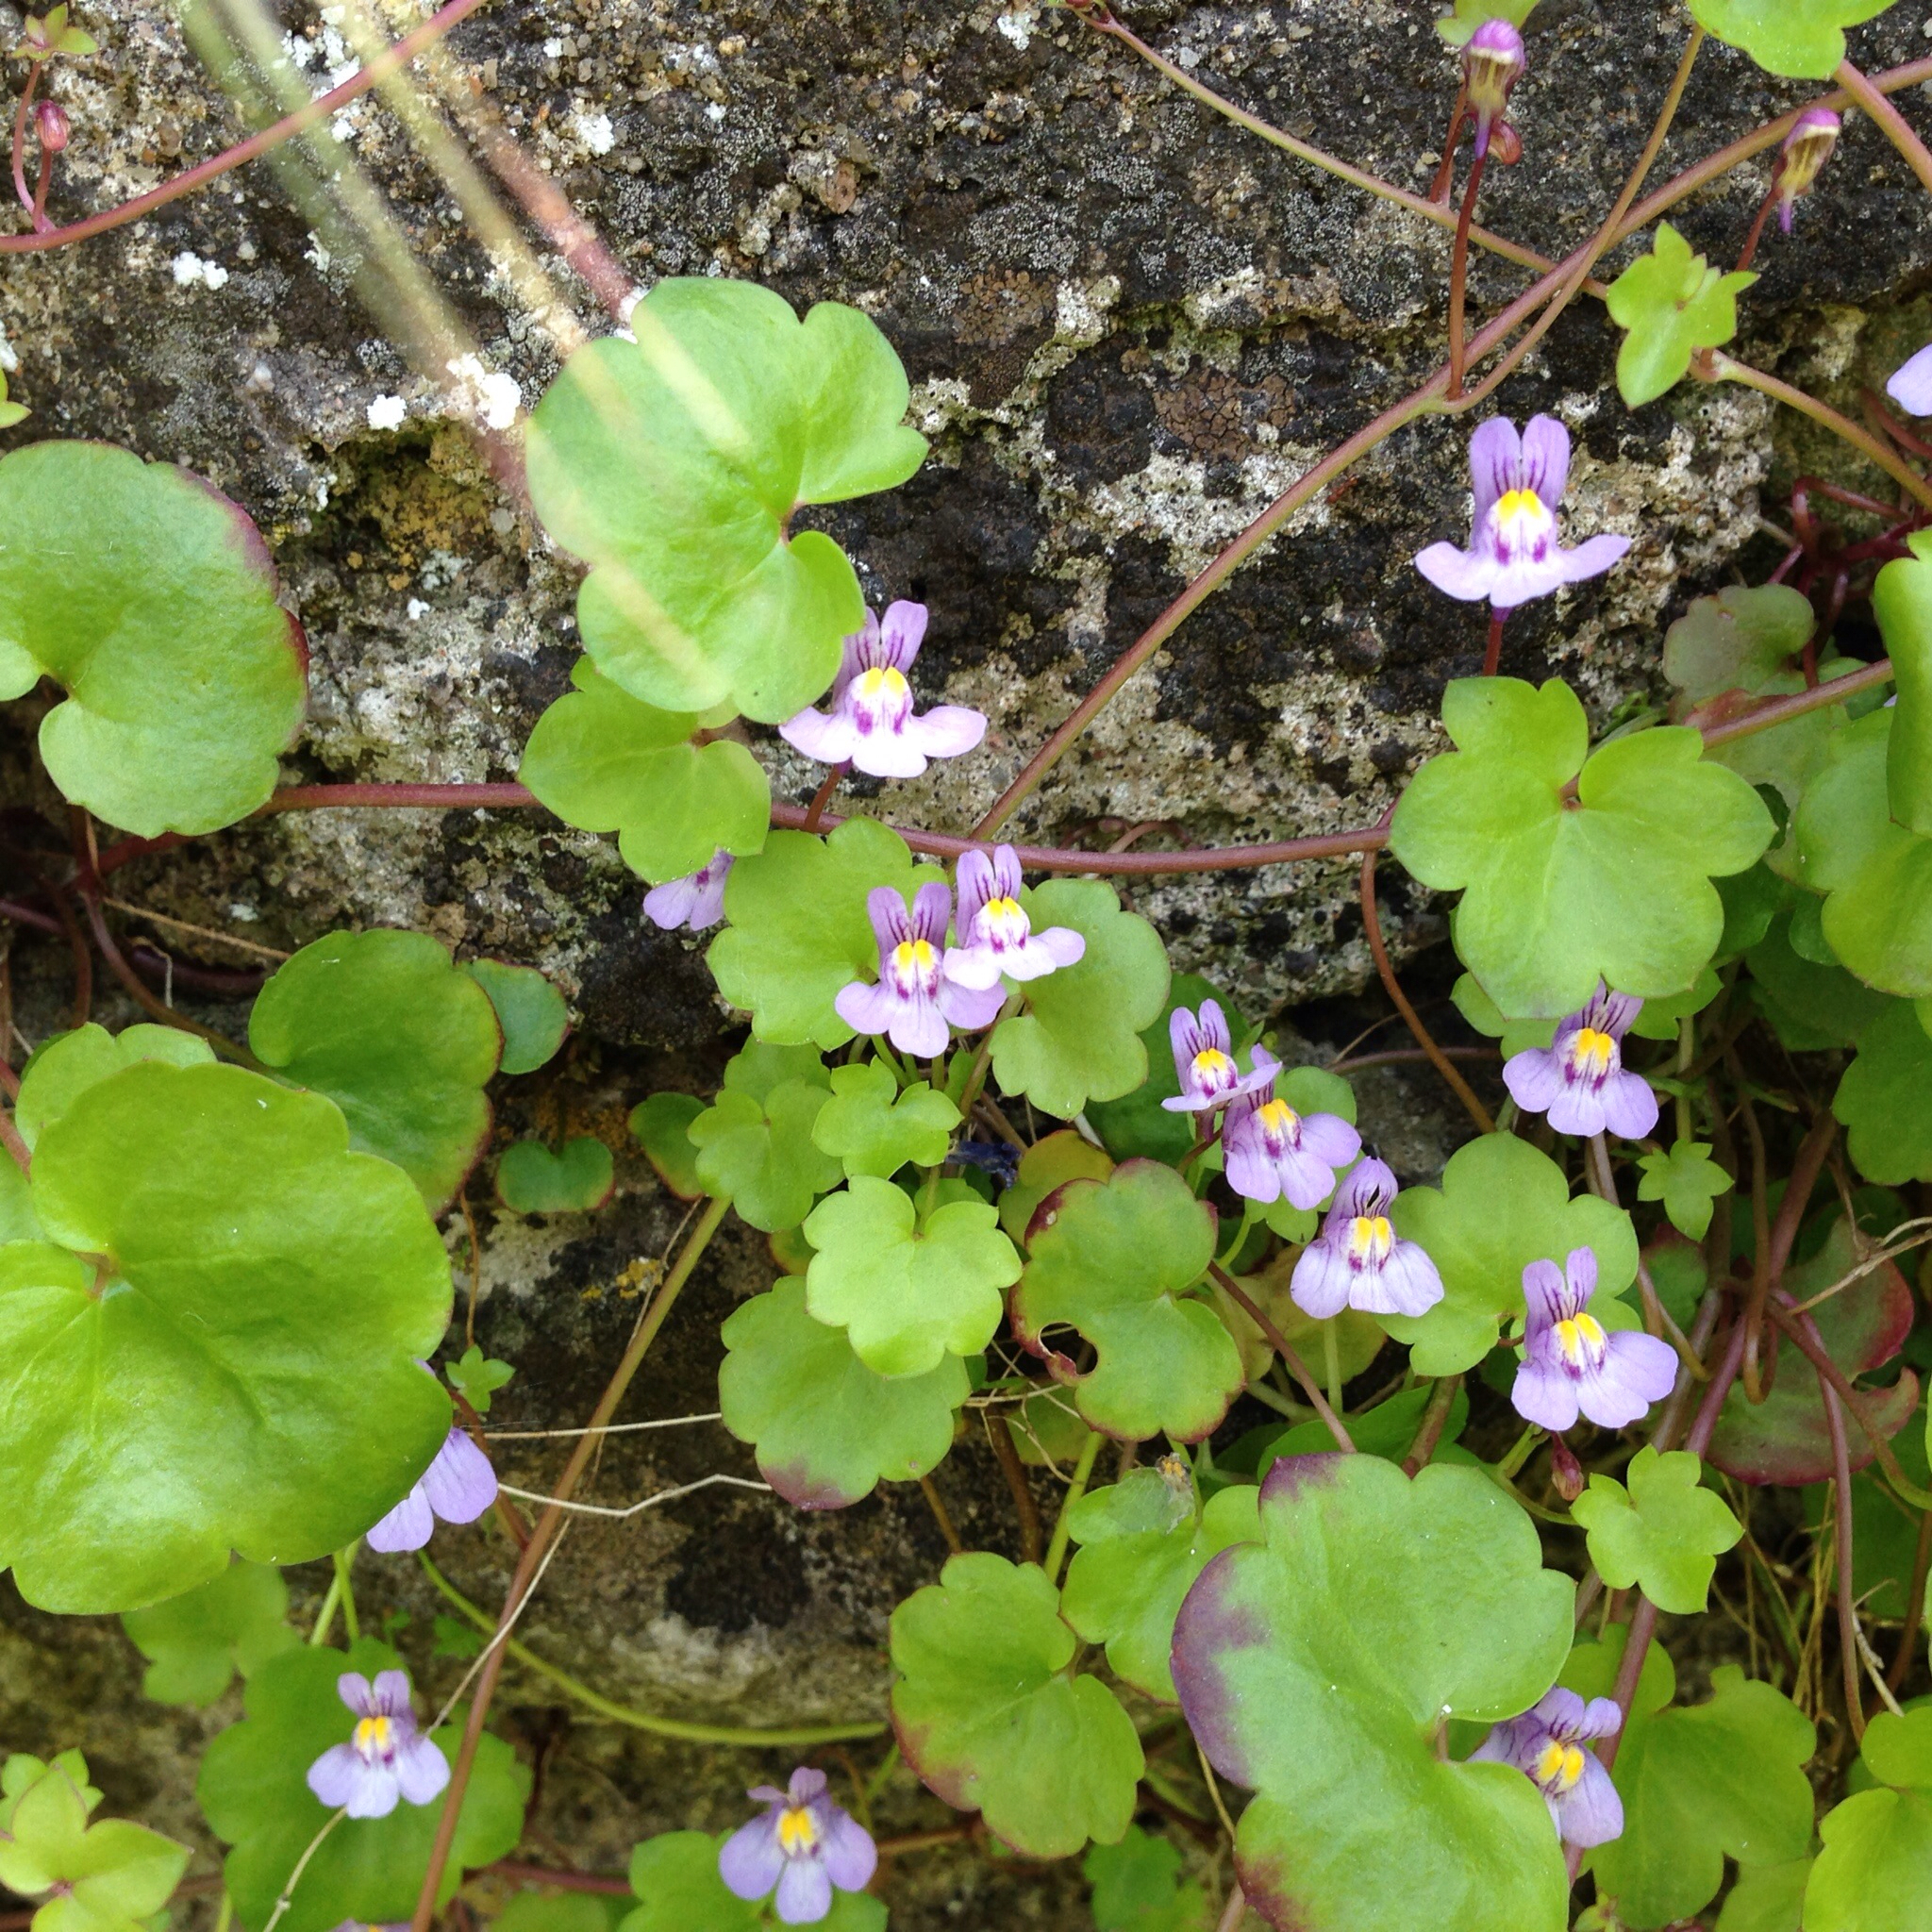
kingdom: Plantae
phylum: Tracheophyta
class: Magnoliopsida
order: Lamiales
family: Plantaginaceae
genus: Cymbalaria
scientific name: Cymbalaria muralis
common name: Ivy-leaved toadflax
